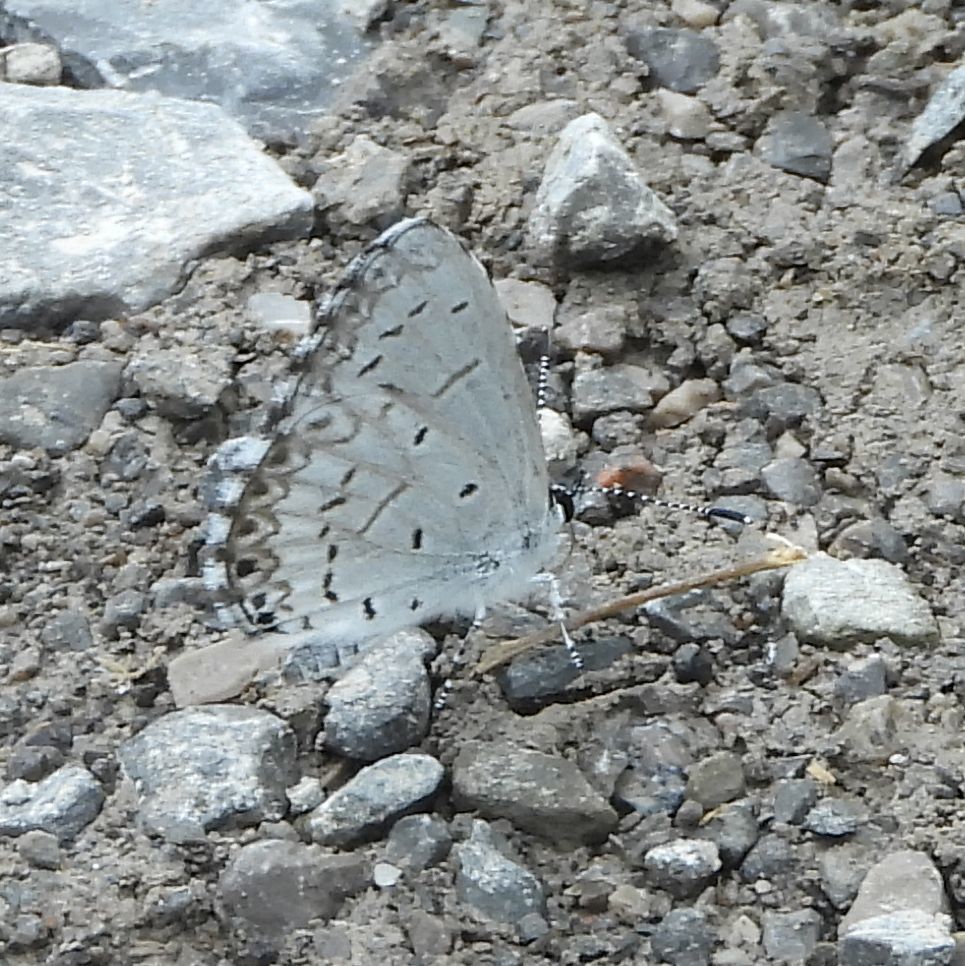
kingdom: Animalia
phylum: Arthropoda
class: Insecta
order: Lepidoptera
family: Lycaenidae
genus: Celastrina
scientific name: Celastrina lucia
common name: Lucia azure
